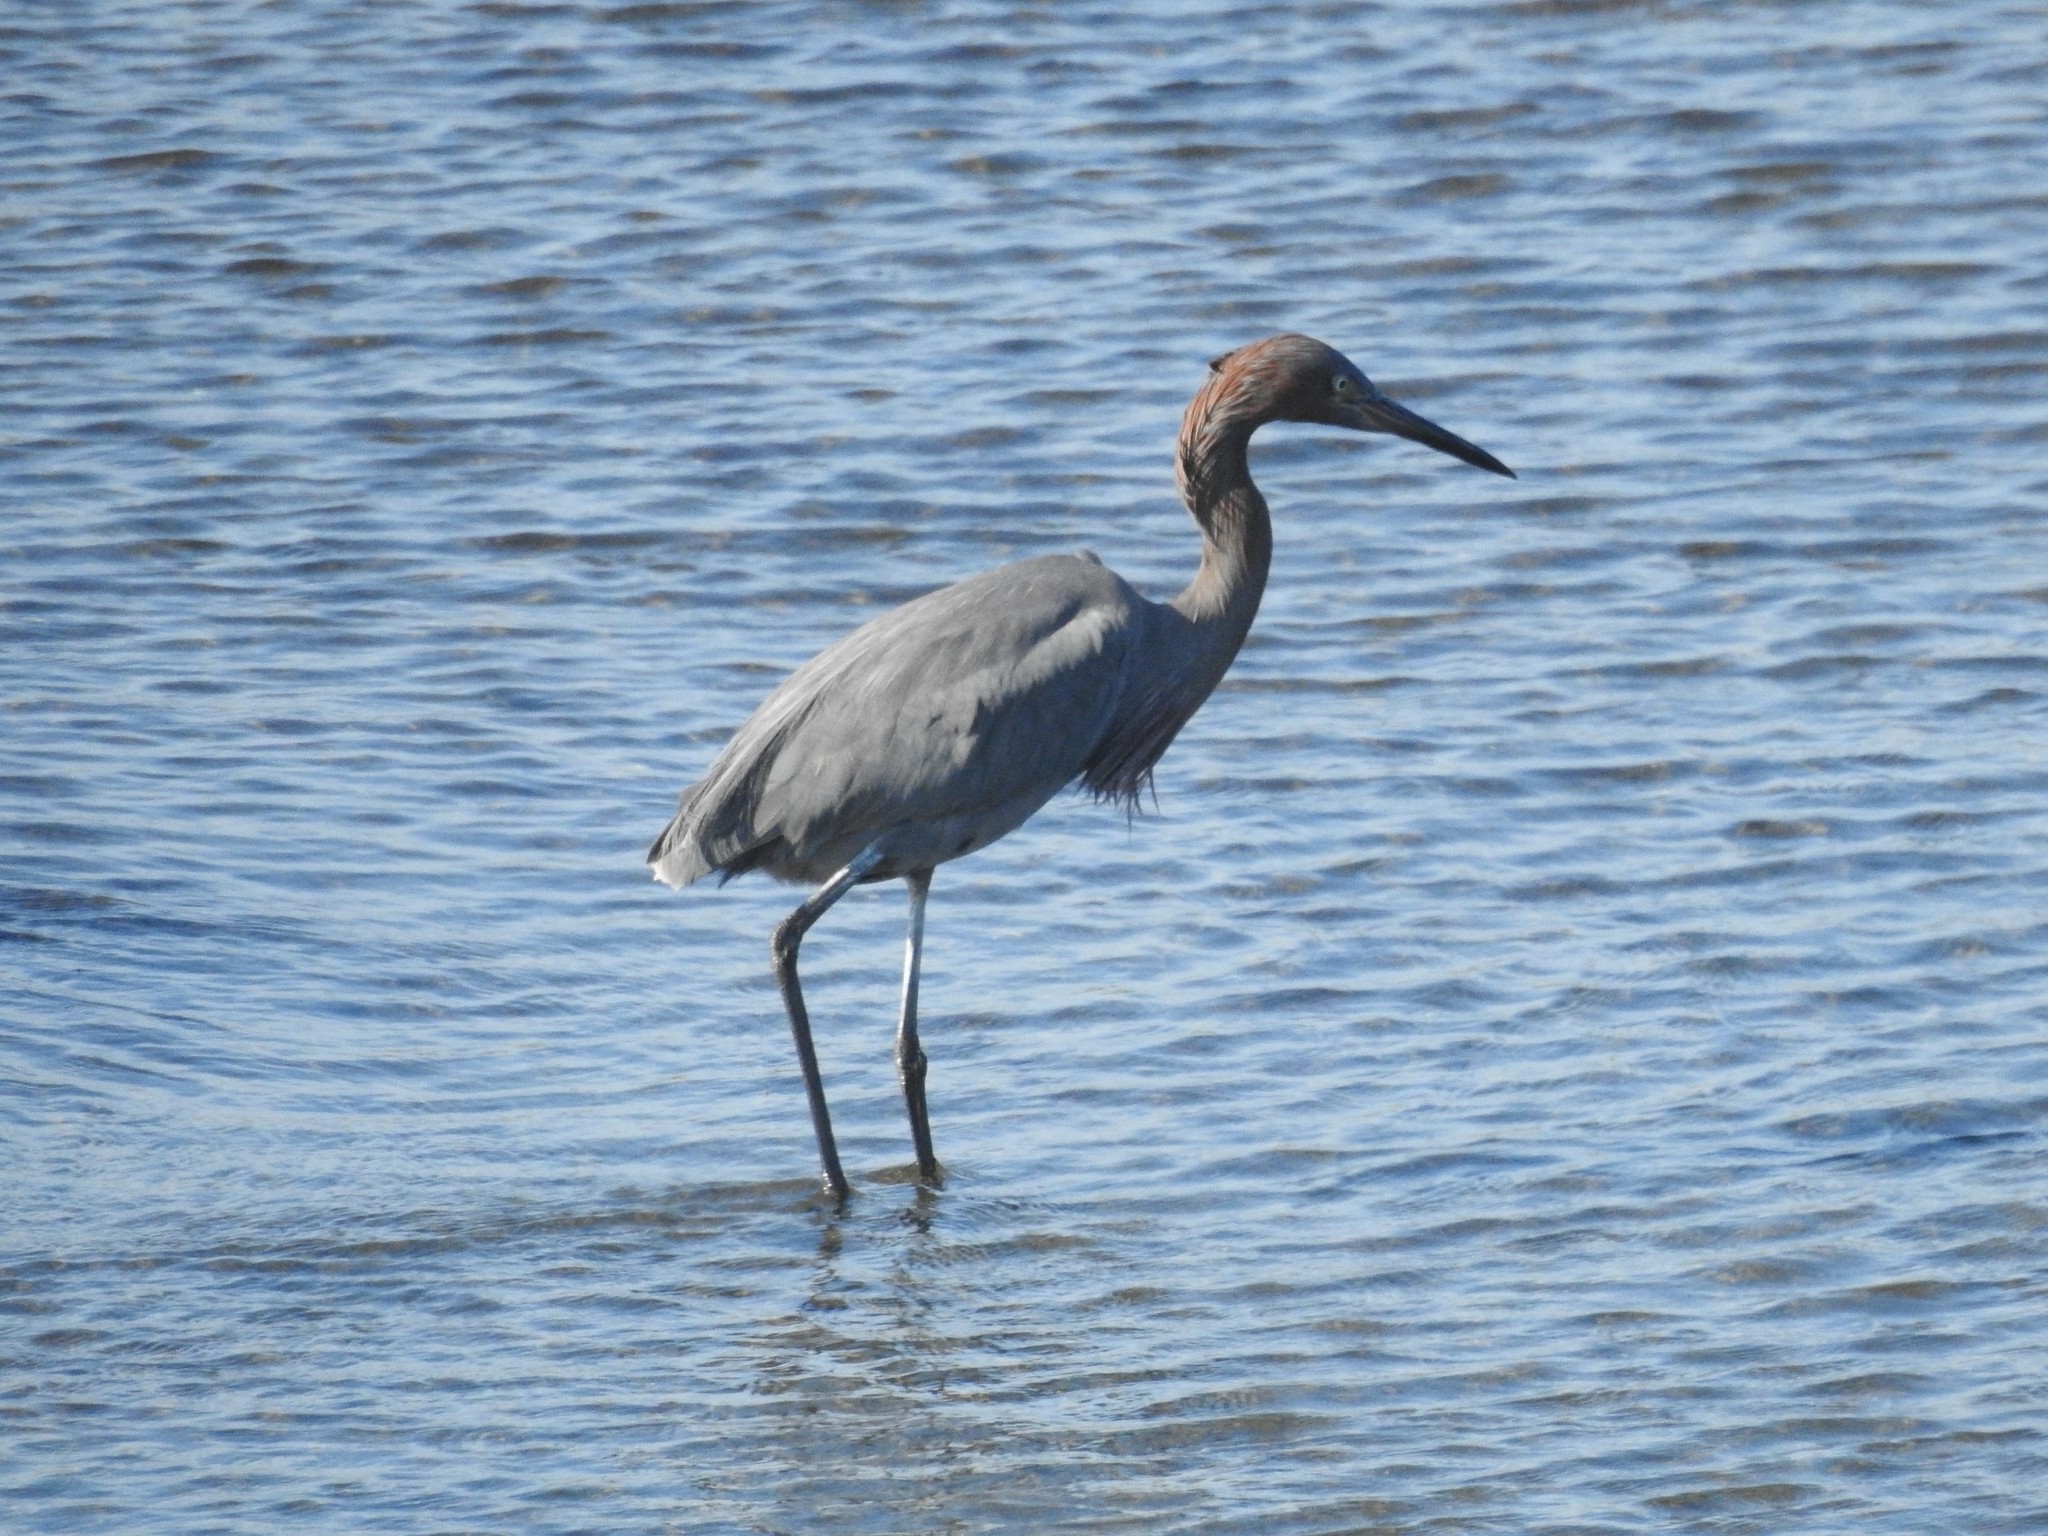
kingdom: Animalia
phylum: Chordata
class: Aves
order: Pelecaniformes
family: Ardeidae
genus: Egretta
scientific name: Egretta rufescens
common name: Reddish egret
